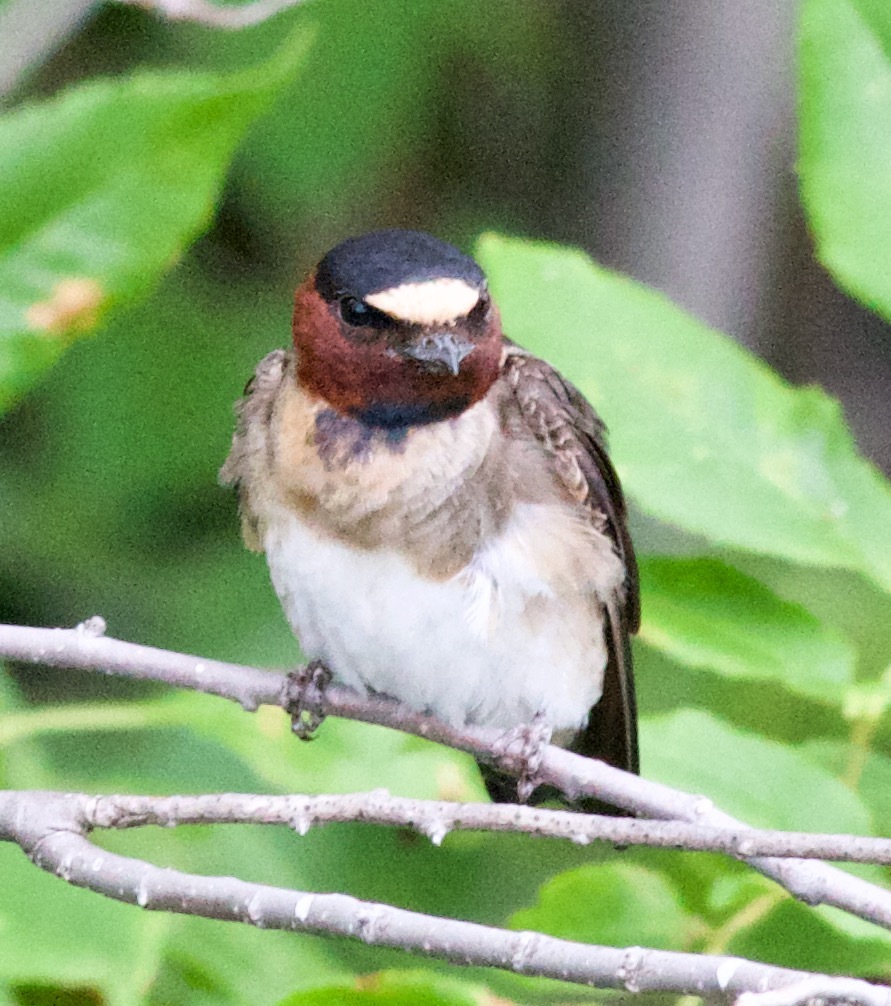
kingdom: Animalia
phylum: Chordata
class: Aves
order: Passeriformes
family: Hirundinidae
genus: Petrochelidon
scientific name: Petrochelidon pyrrhonota
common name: American cliff swallow
